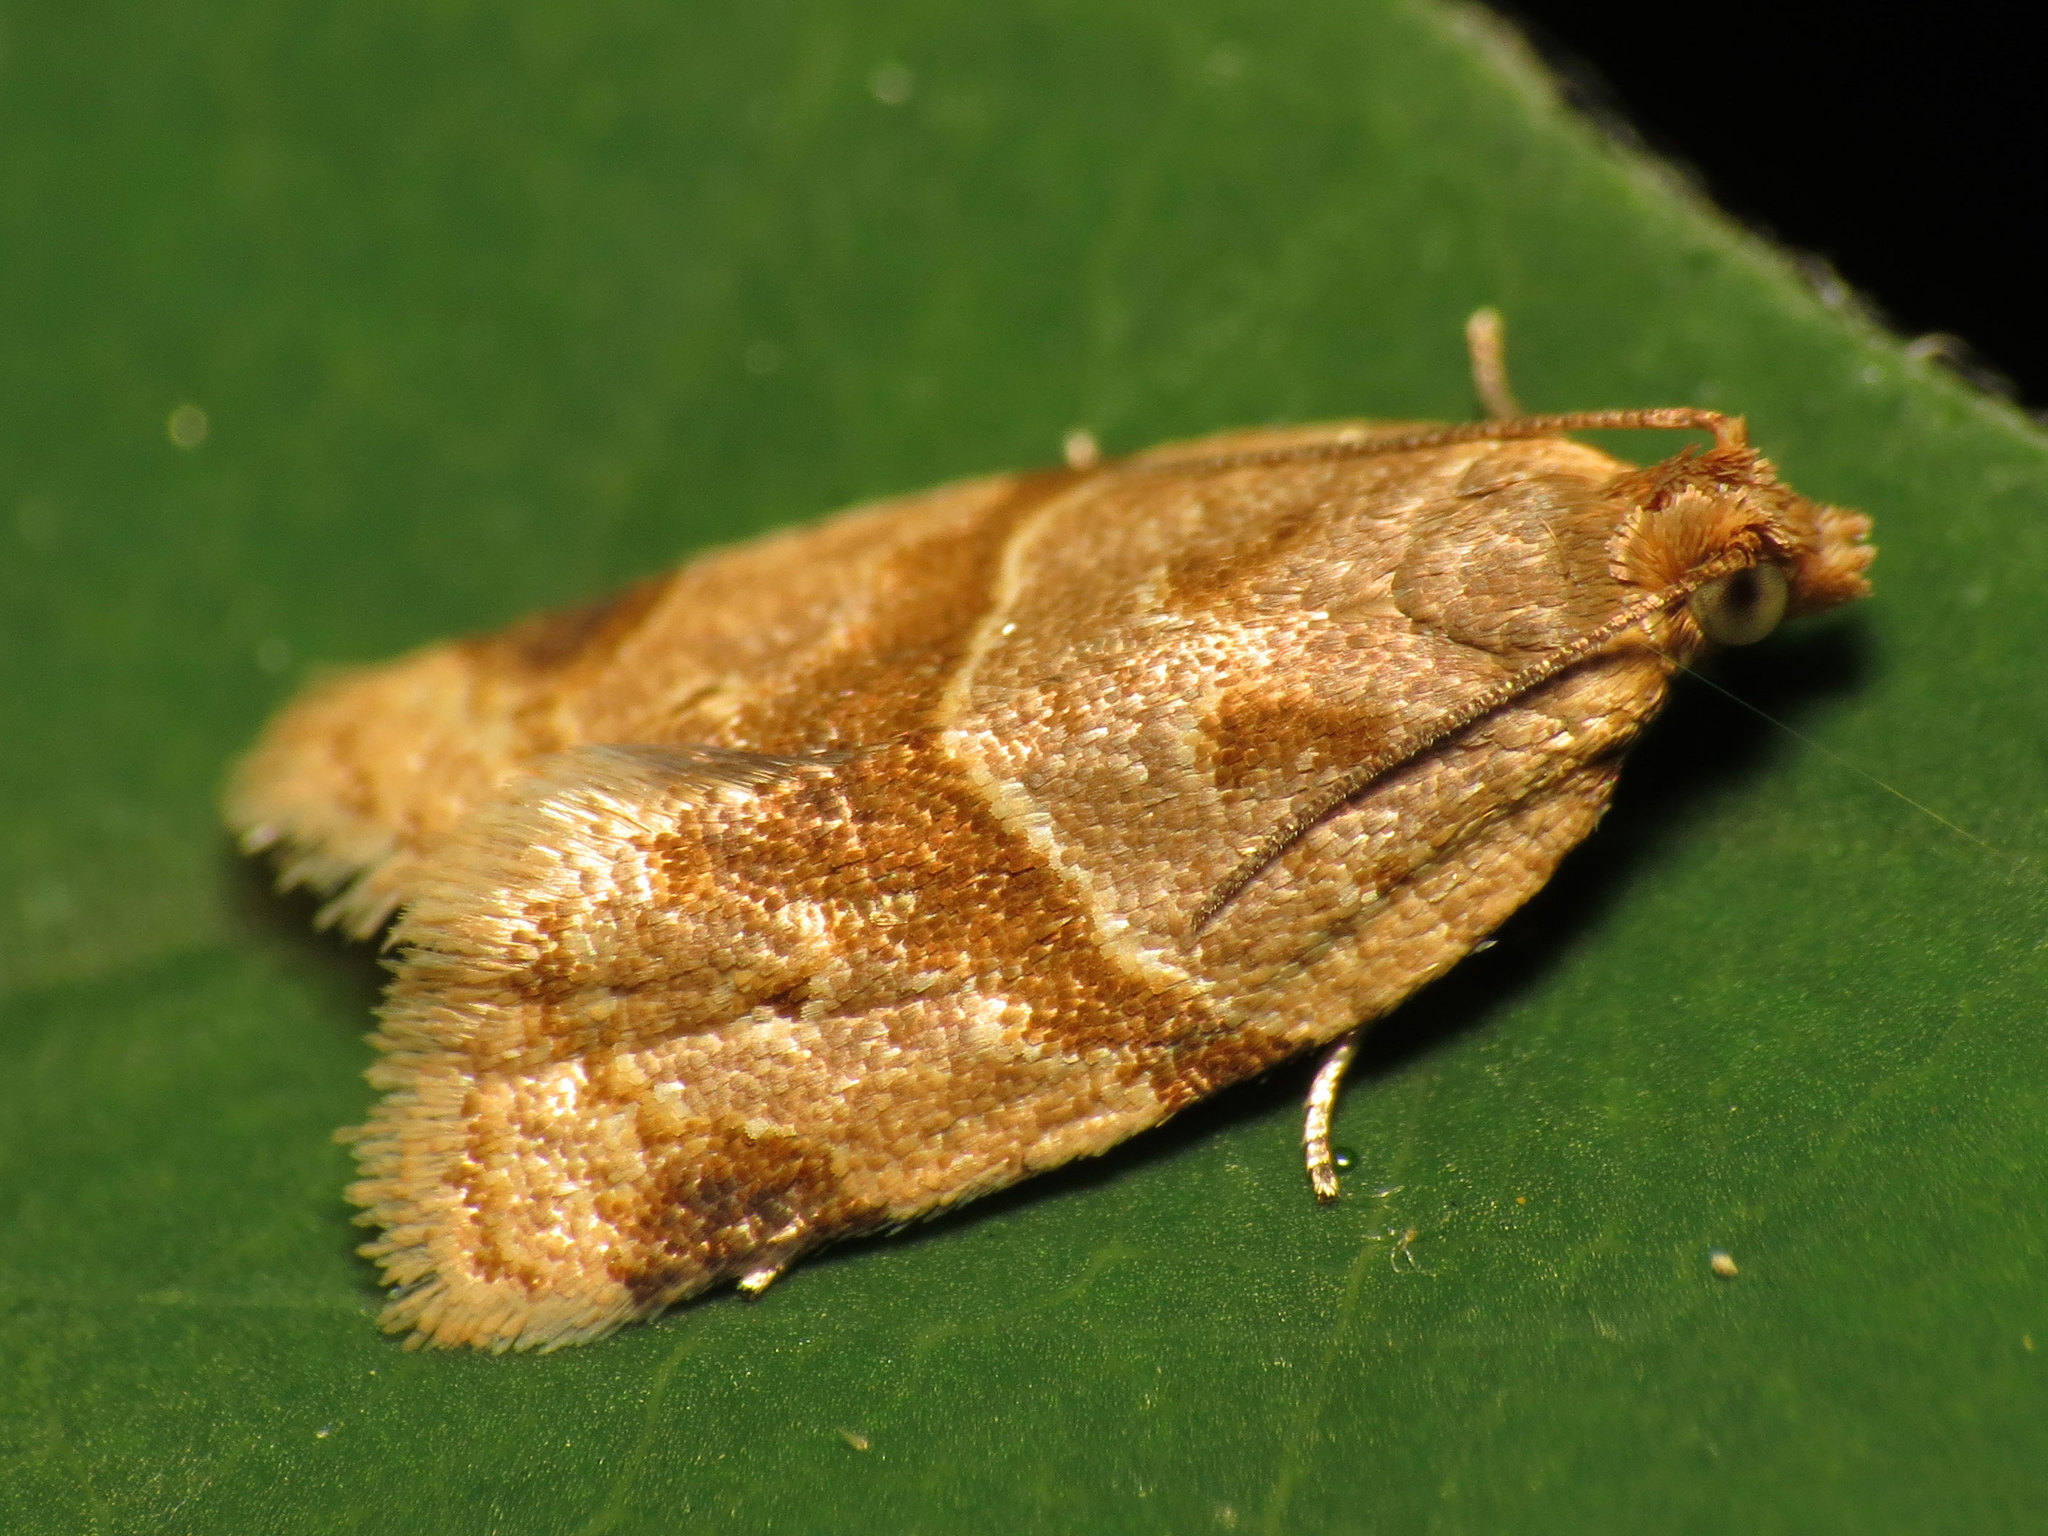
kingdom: Animalia
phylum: Arthropoda
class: Insecta
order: Lepidoptera
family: Tortricidae
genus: Clepsis
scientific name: Clepsis peritana
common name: Garden tortrix
